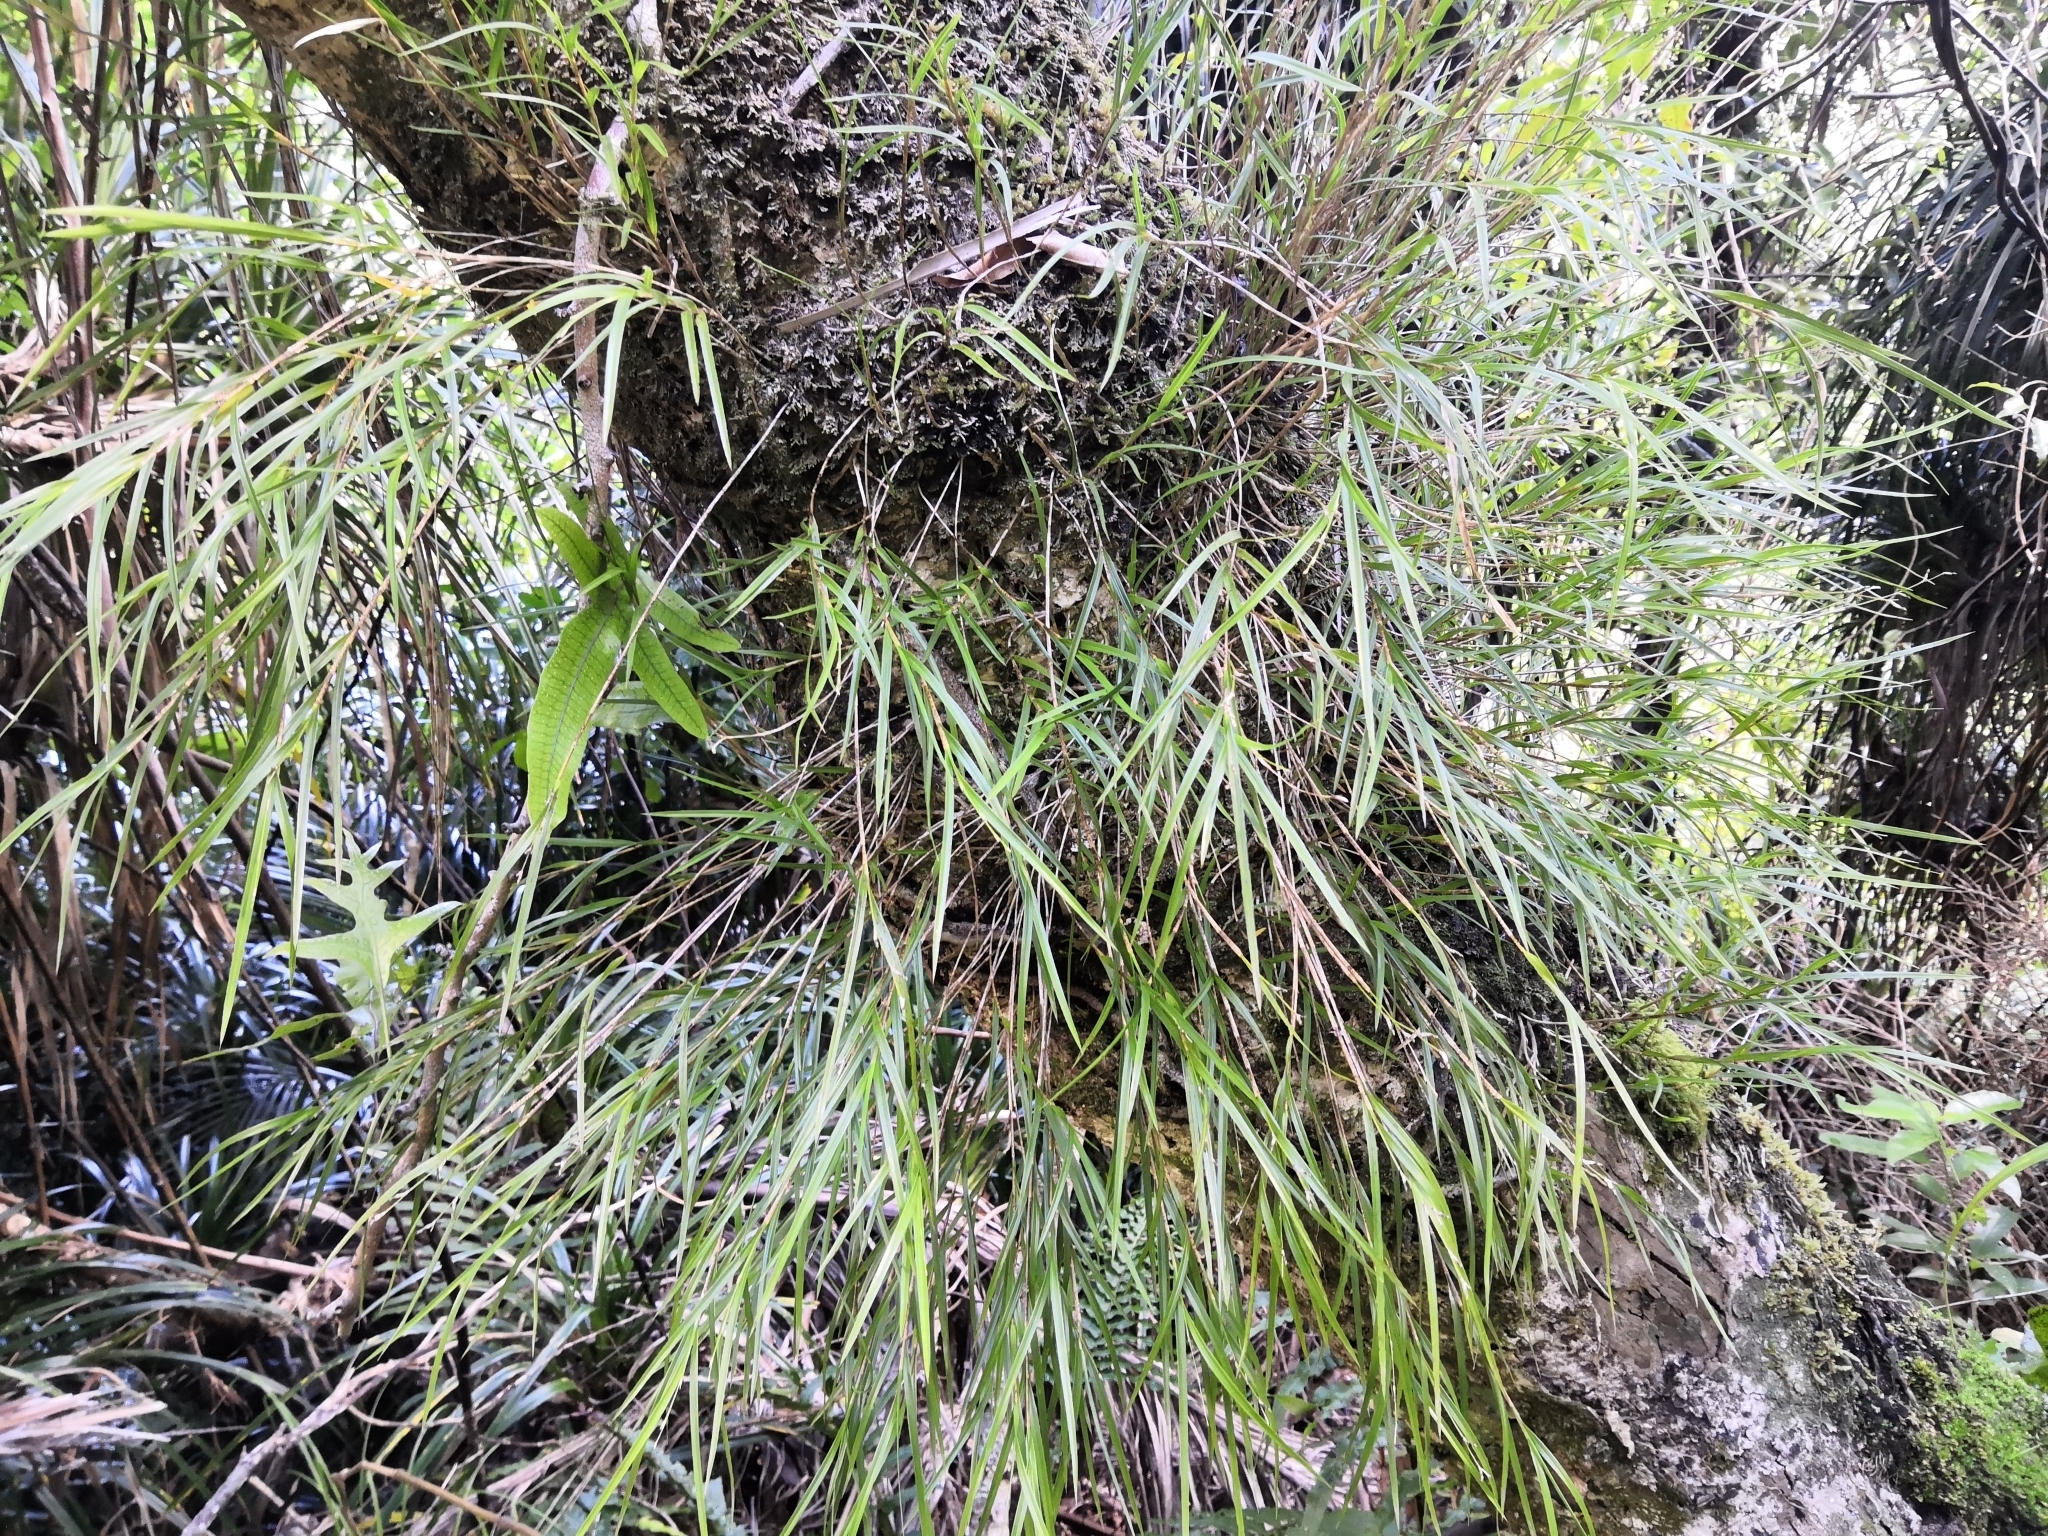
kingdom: Plantae
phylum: Tracheophyta
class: Liliopsida
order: Asparagales
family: Orchidaceae
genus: Earina
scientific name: Earina mucronata
